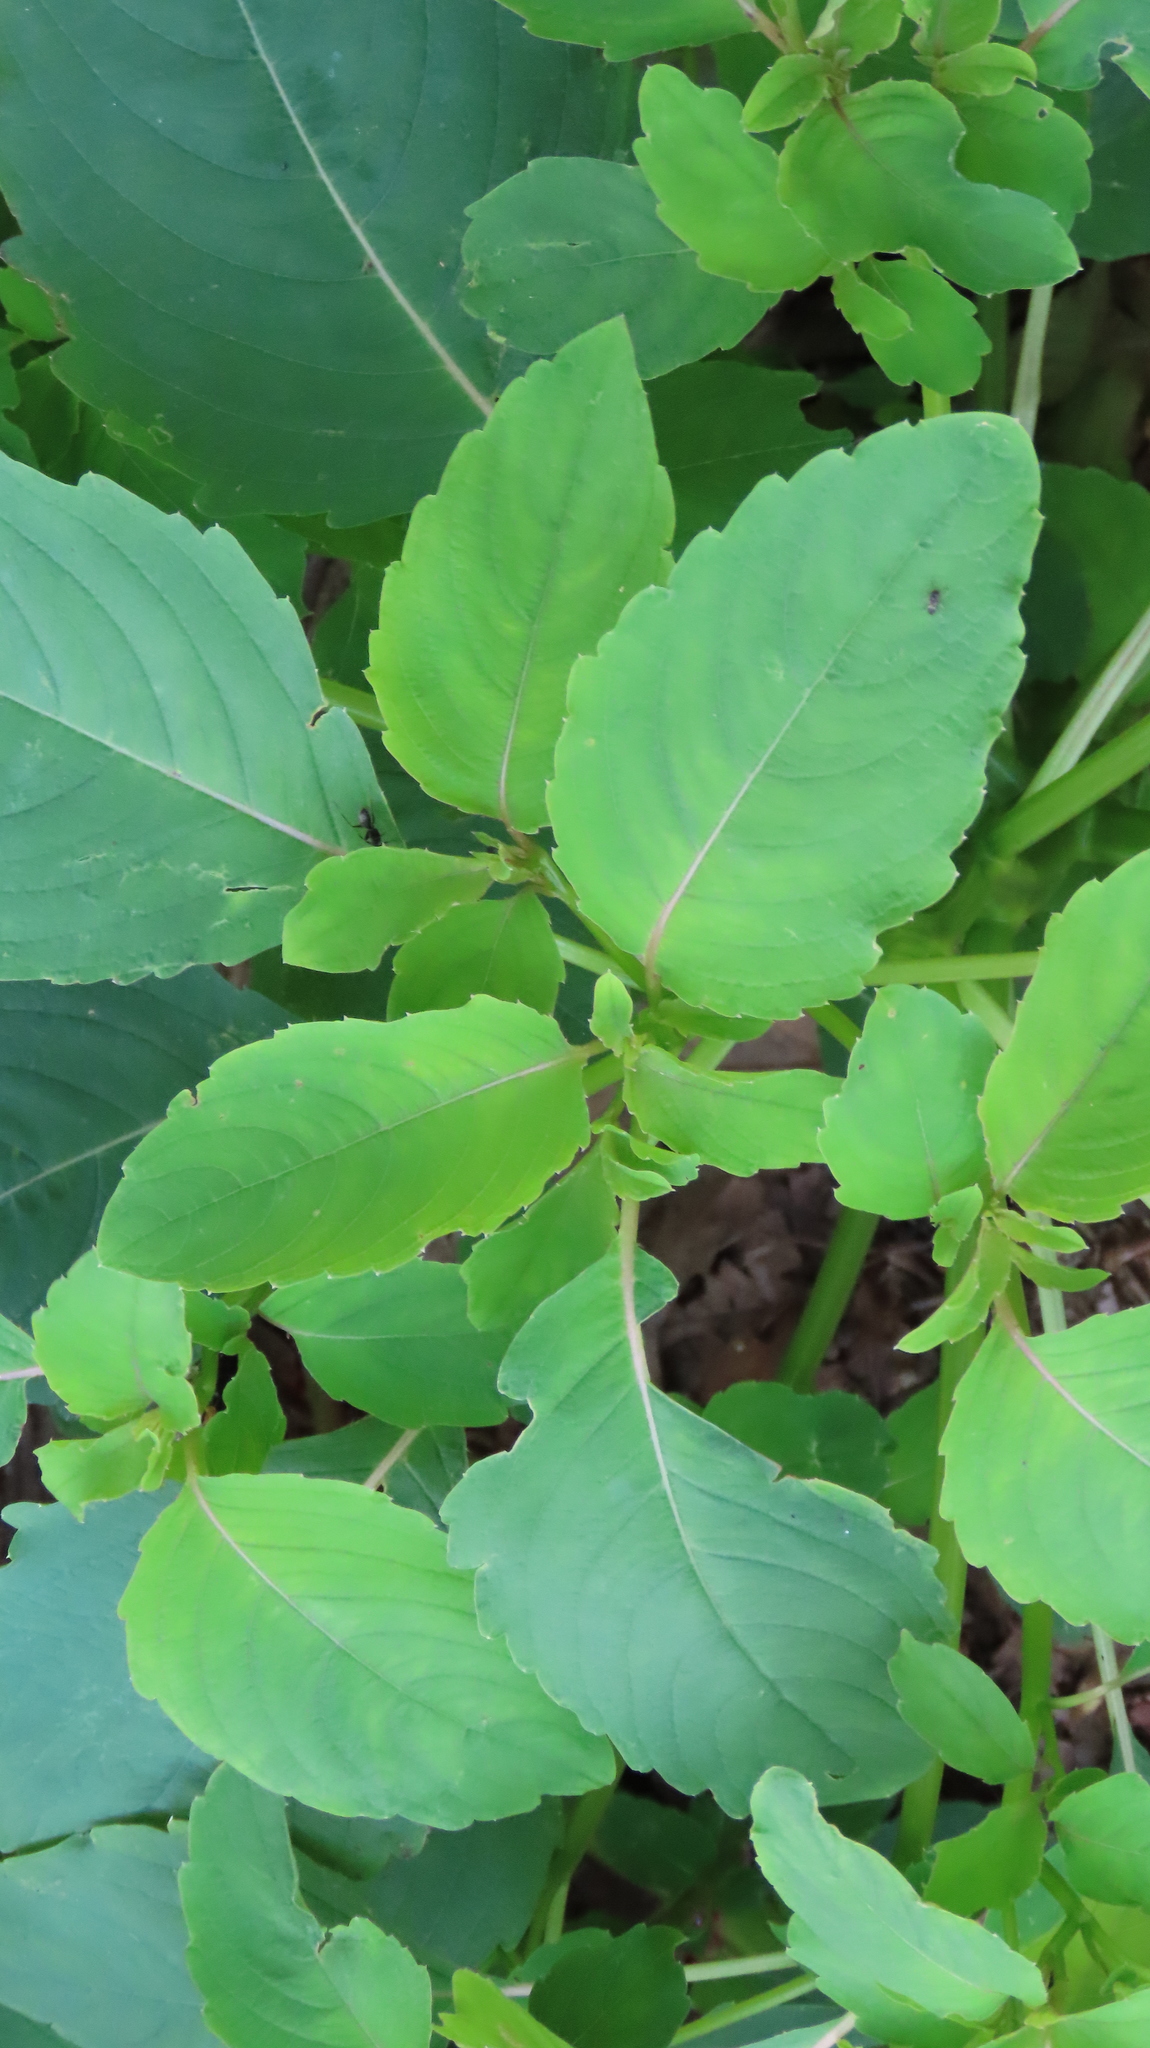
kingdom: Plantae
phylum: Tracheophyta
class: Magnoliopsida
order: Ericales
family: Balsaminaceae
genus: Impatiens
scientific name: Impatiens pallida
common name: Pale snapweed
